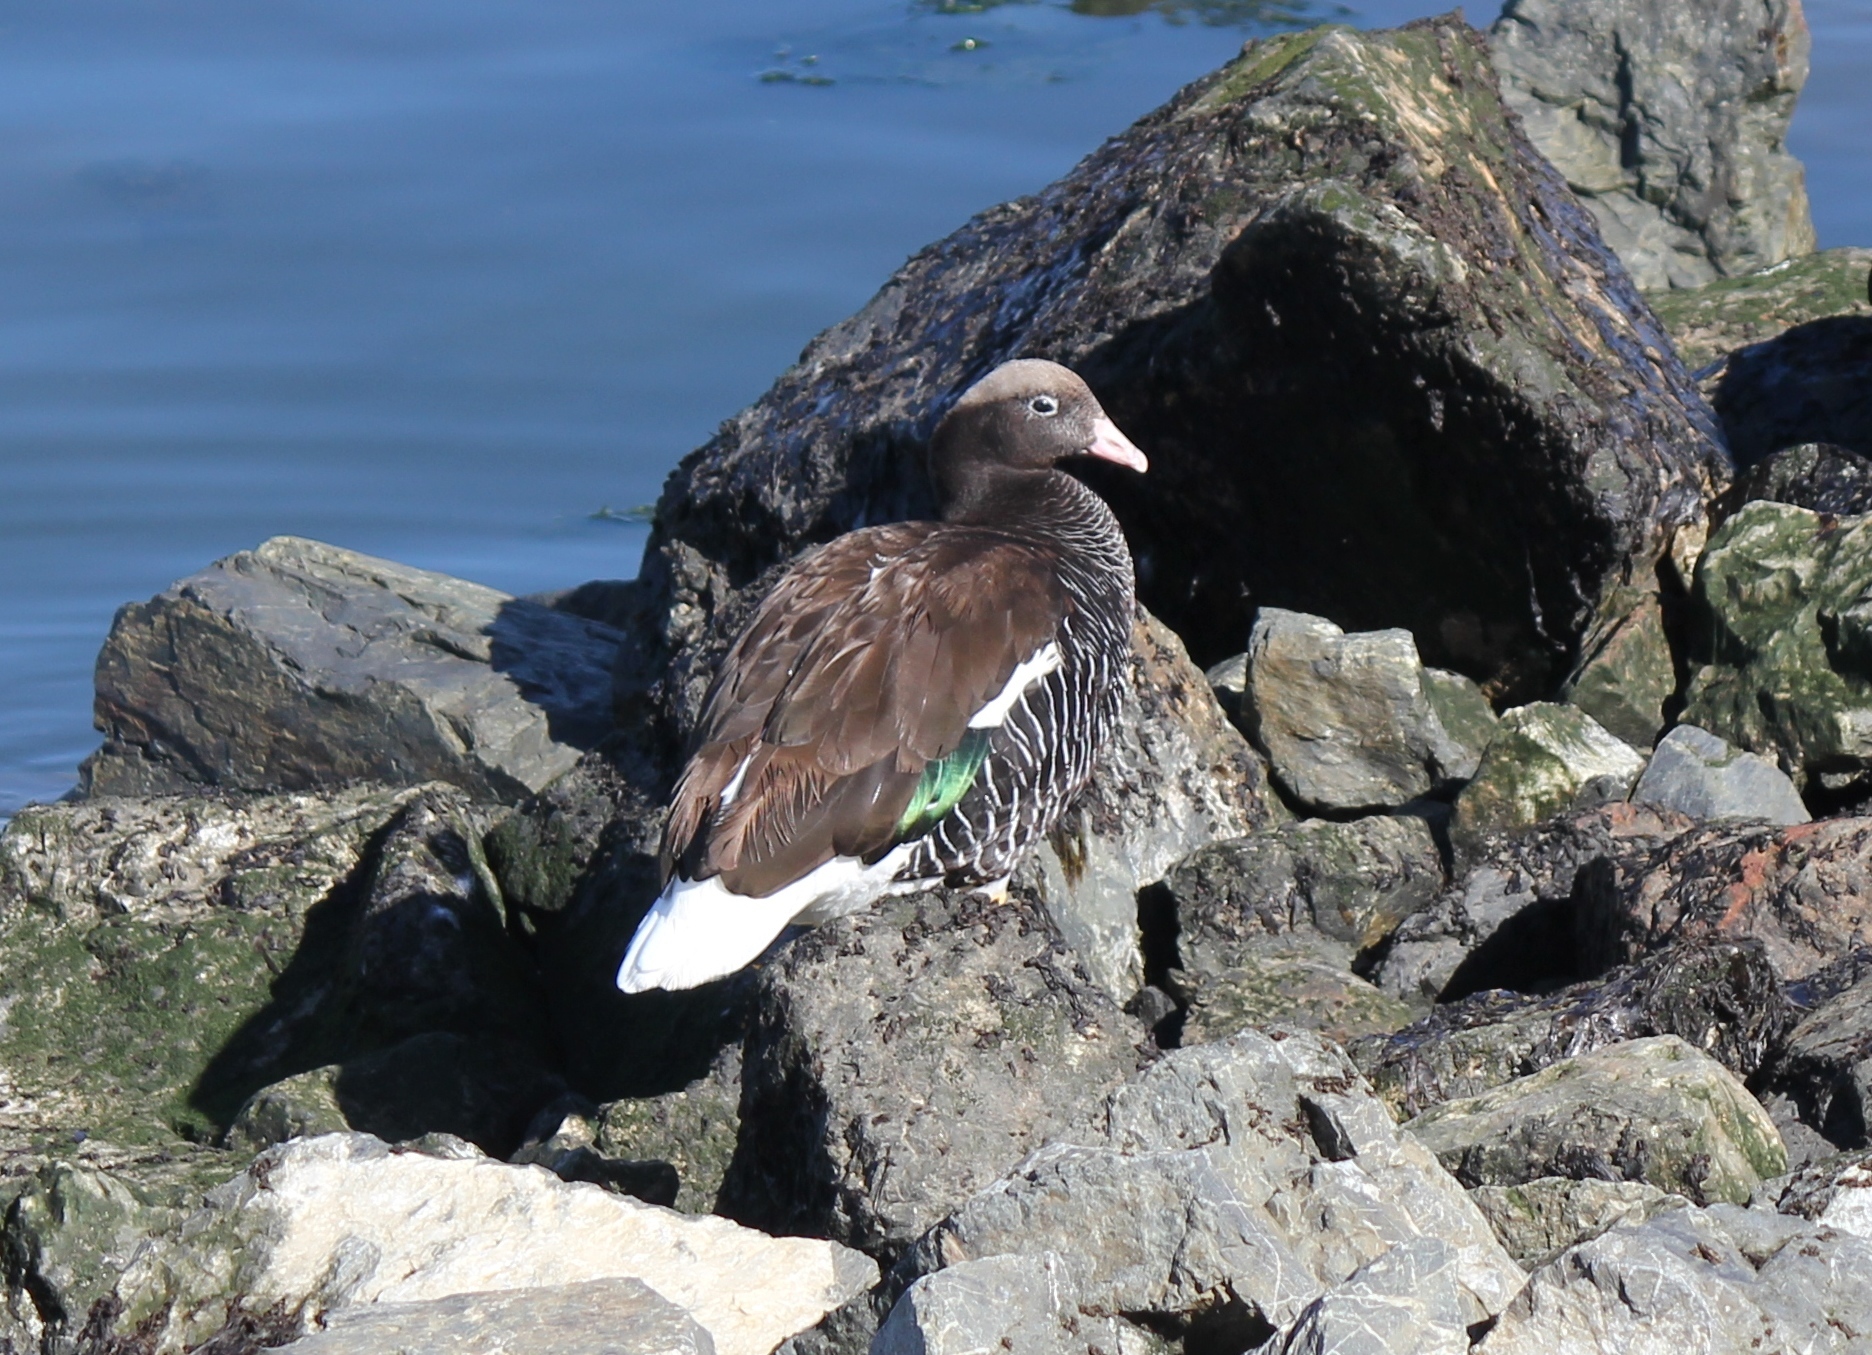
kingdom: Animalia
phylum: Chordata
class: Aves
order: Anseriformes
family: Anatidae
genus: Chloephaga
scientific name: Chloephaga hybrida
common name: Kelp goose
